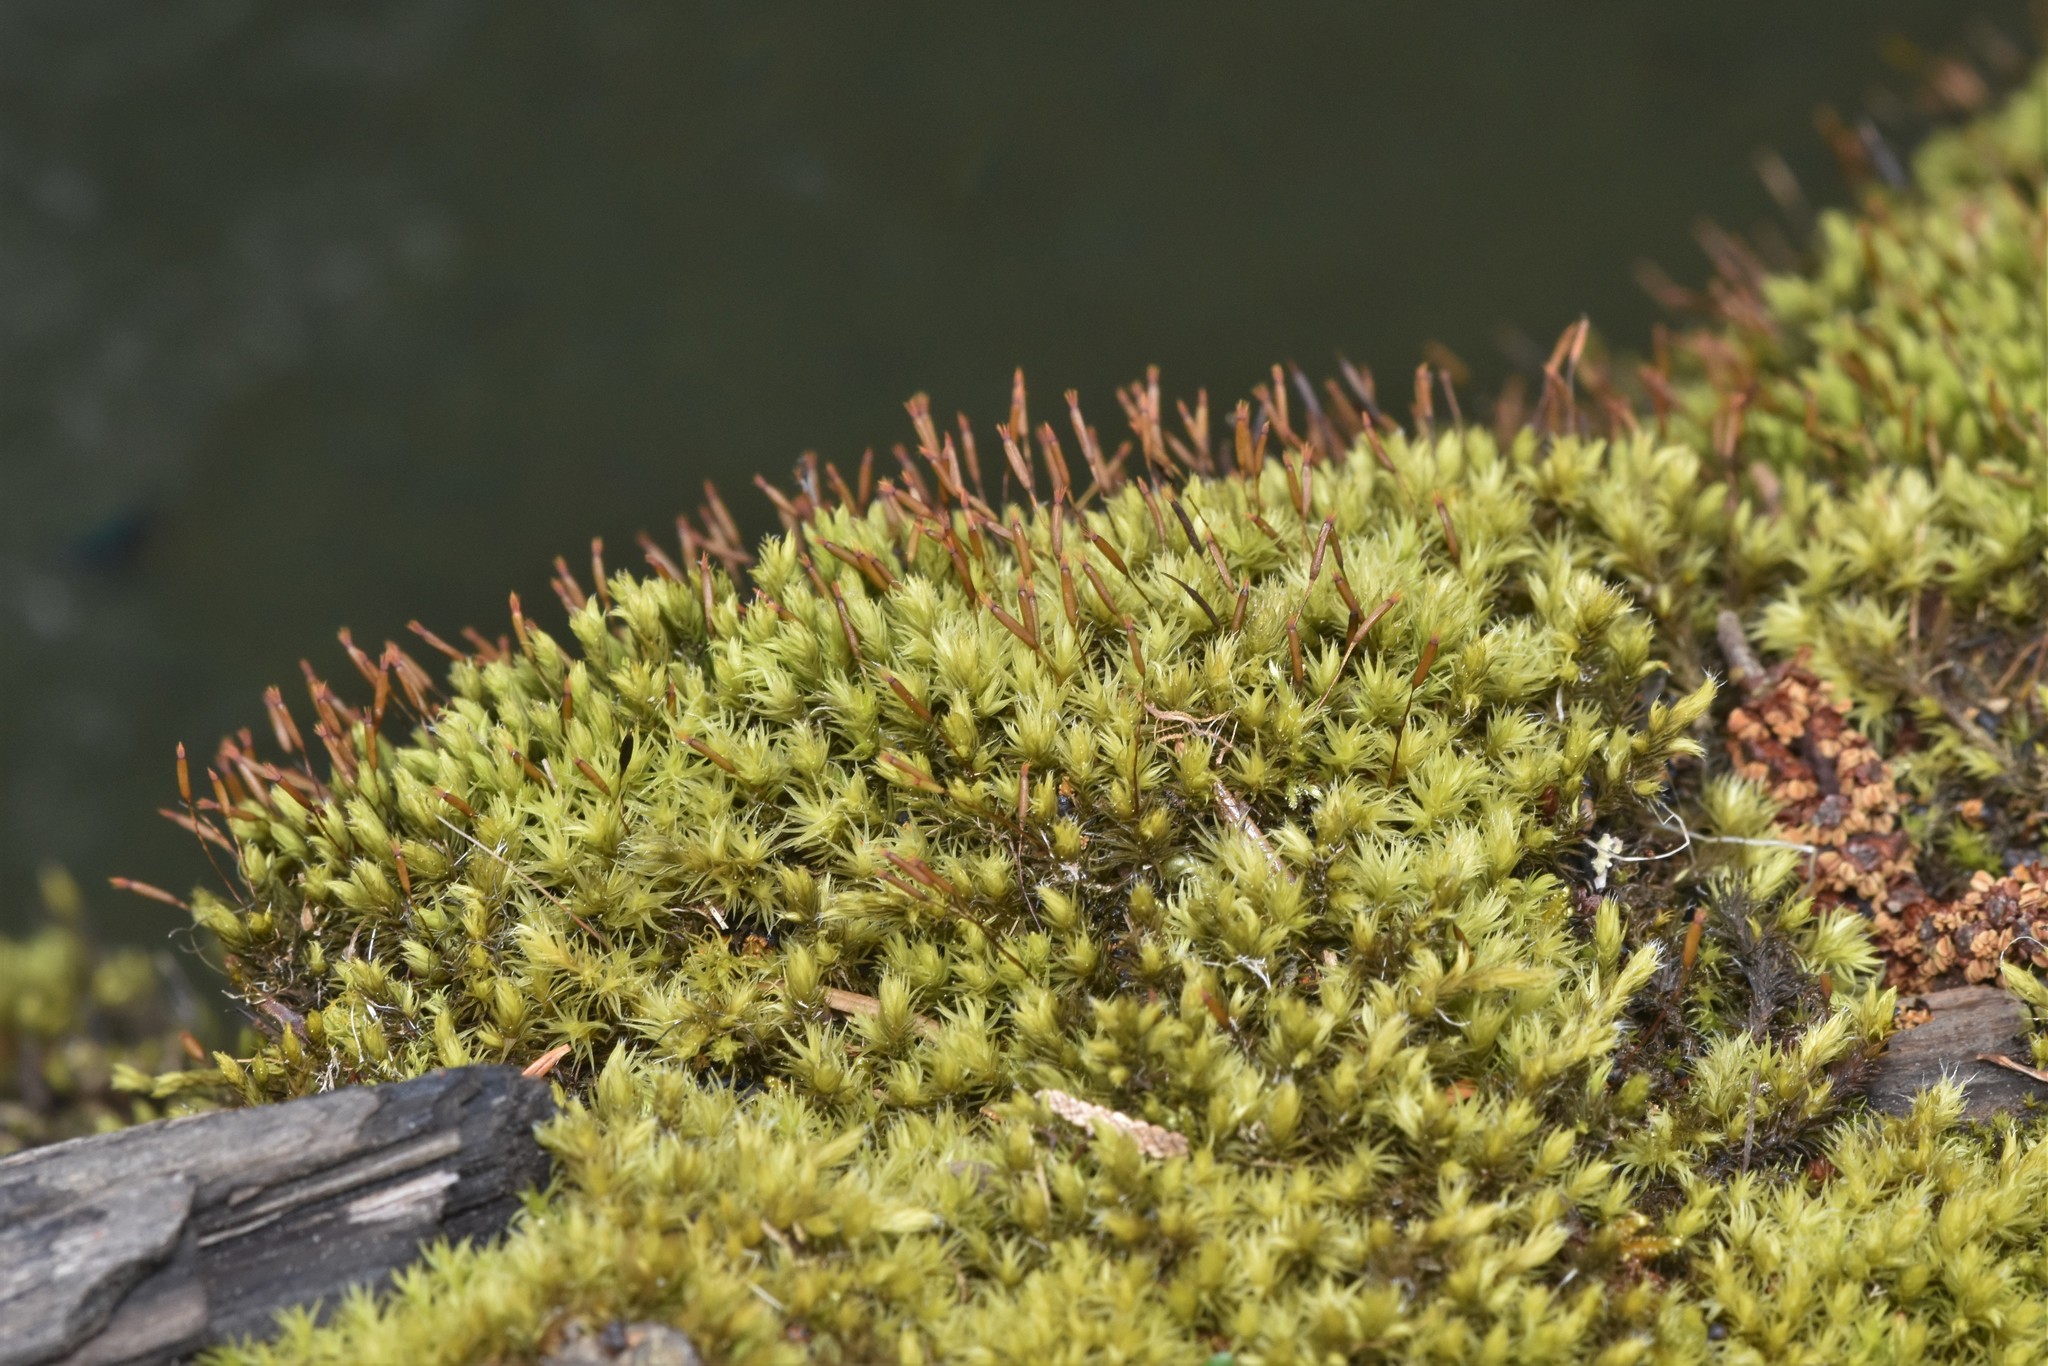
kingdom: Plantae
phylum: Bryophyta
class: Bryopsida
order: Grimmiales
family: Grimmiaceae
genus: Frisvollia
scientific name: Frisvollia varia
